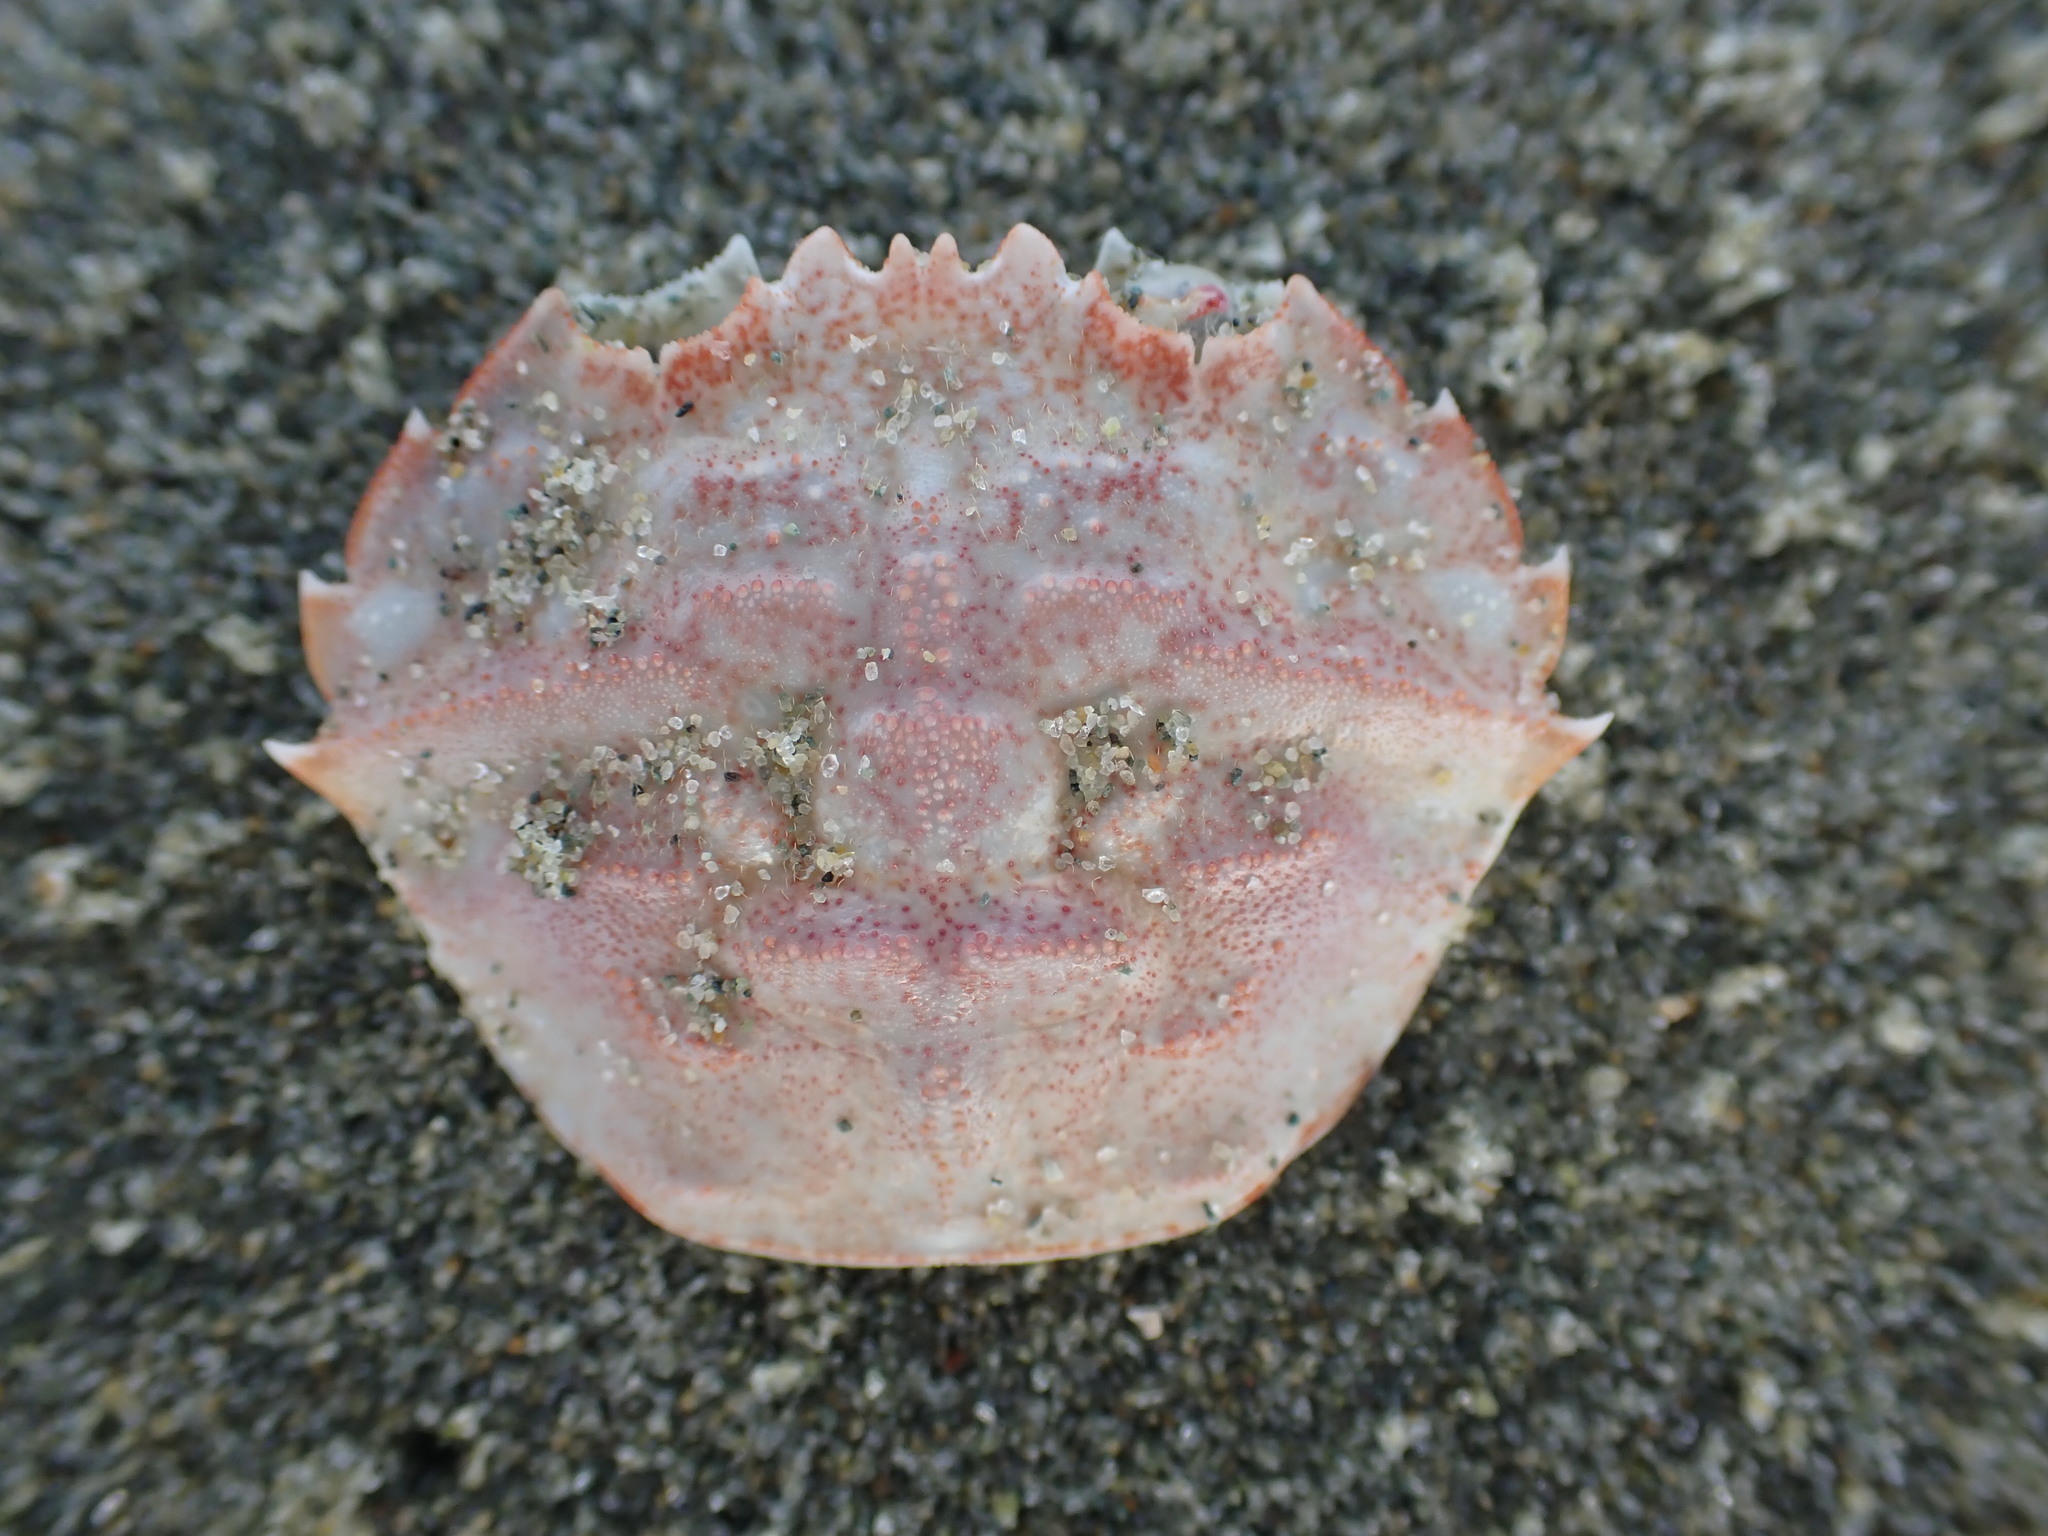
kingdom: Animalia
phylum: Arthropoda
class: Malacostraca
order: Decapoda
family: Geryonidae
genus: Nectocarcinus
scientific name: Nectocarcinus antarcticus
